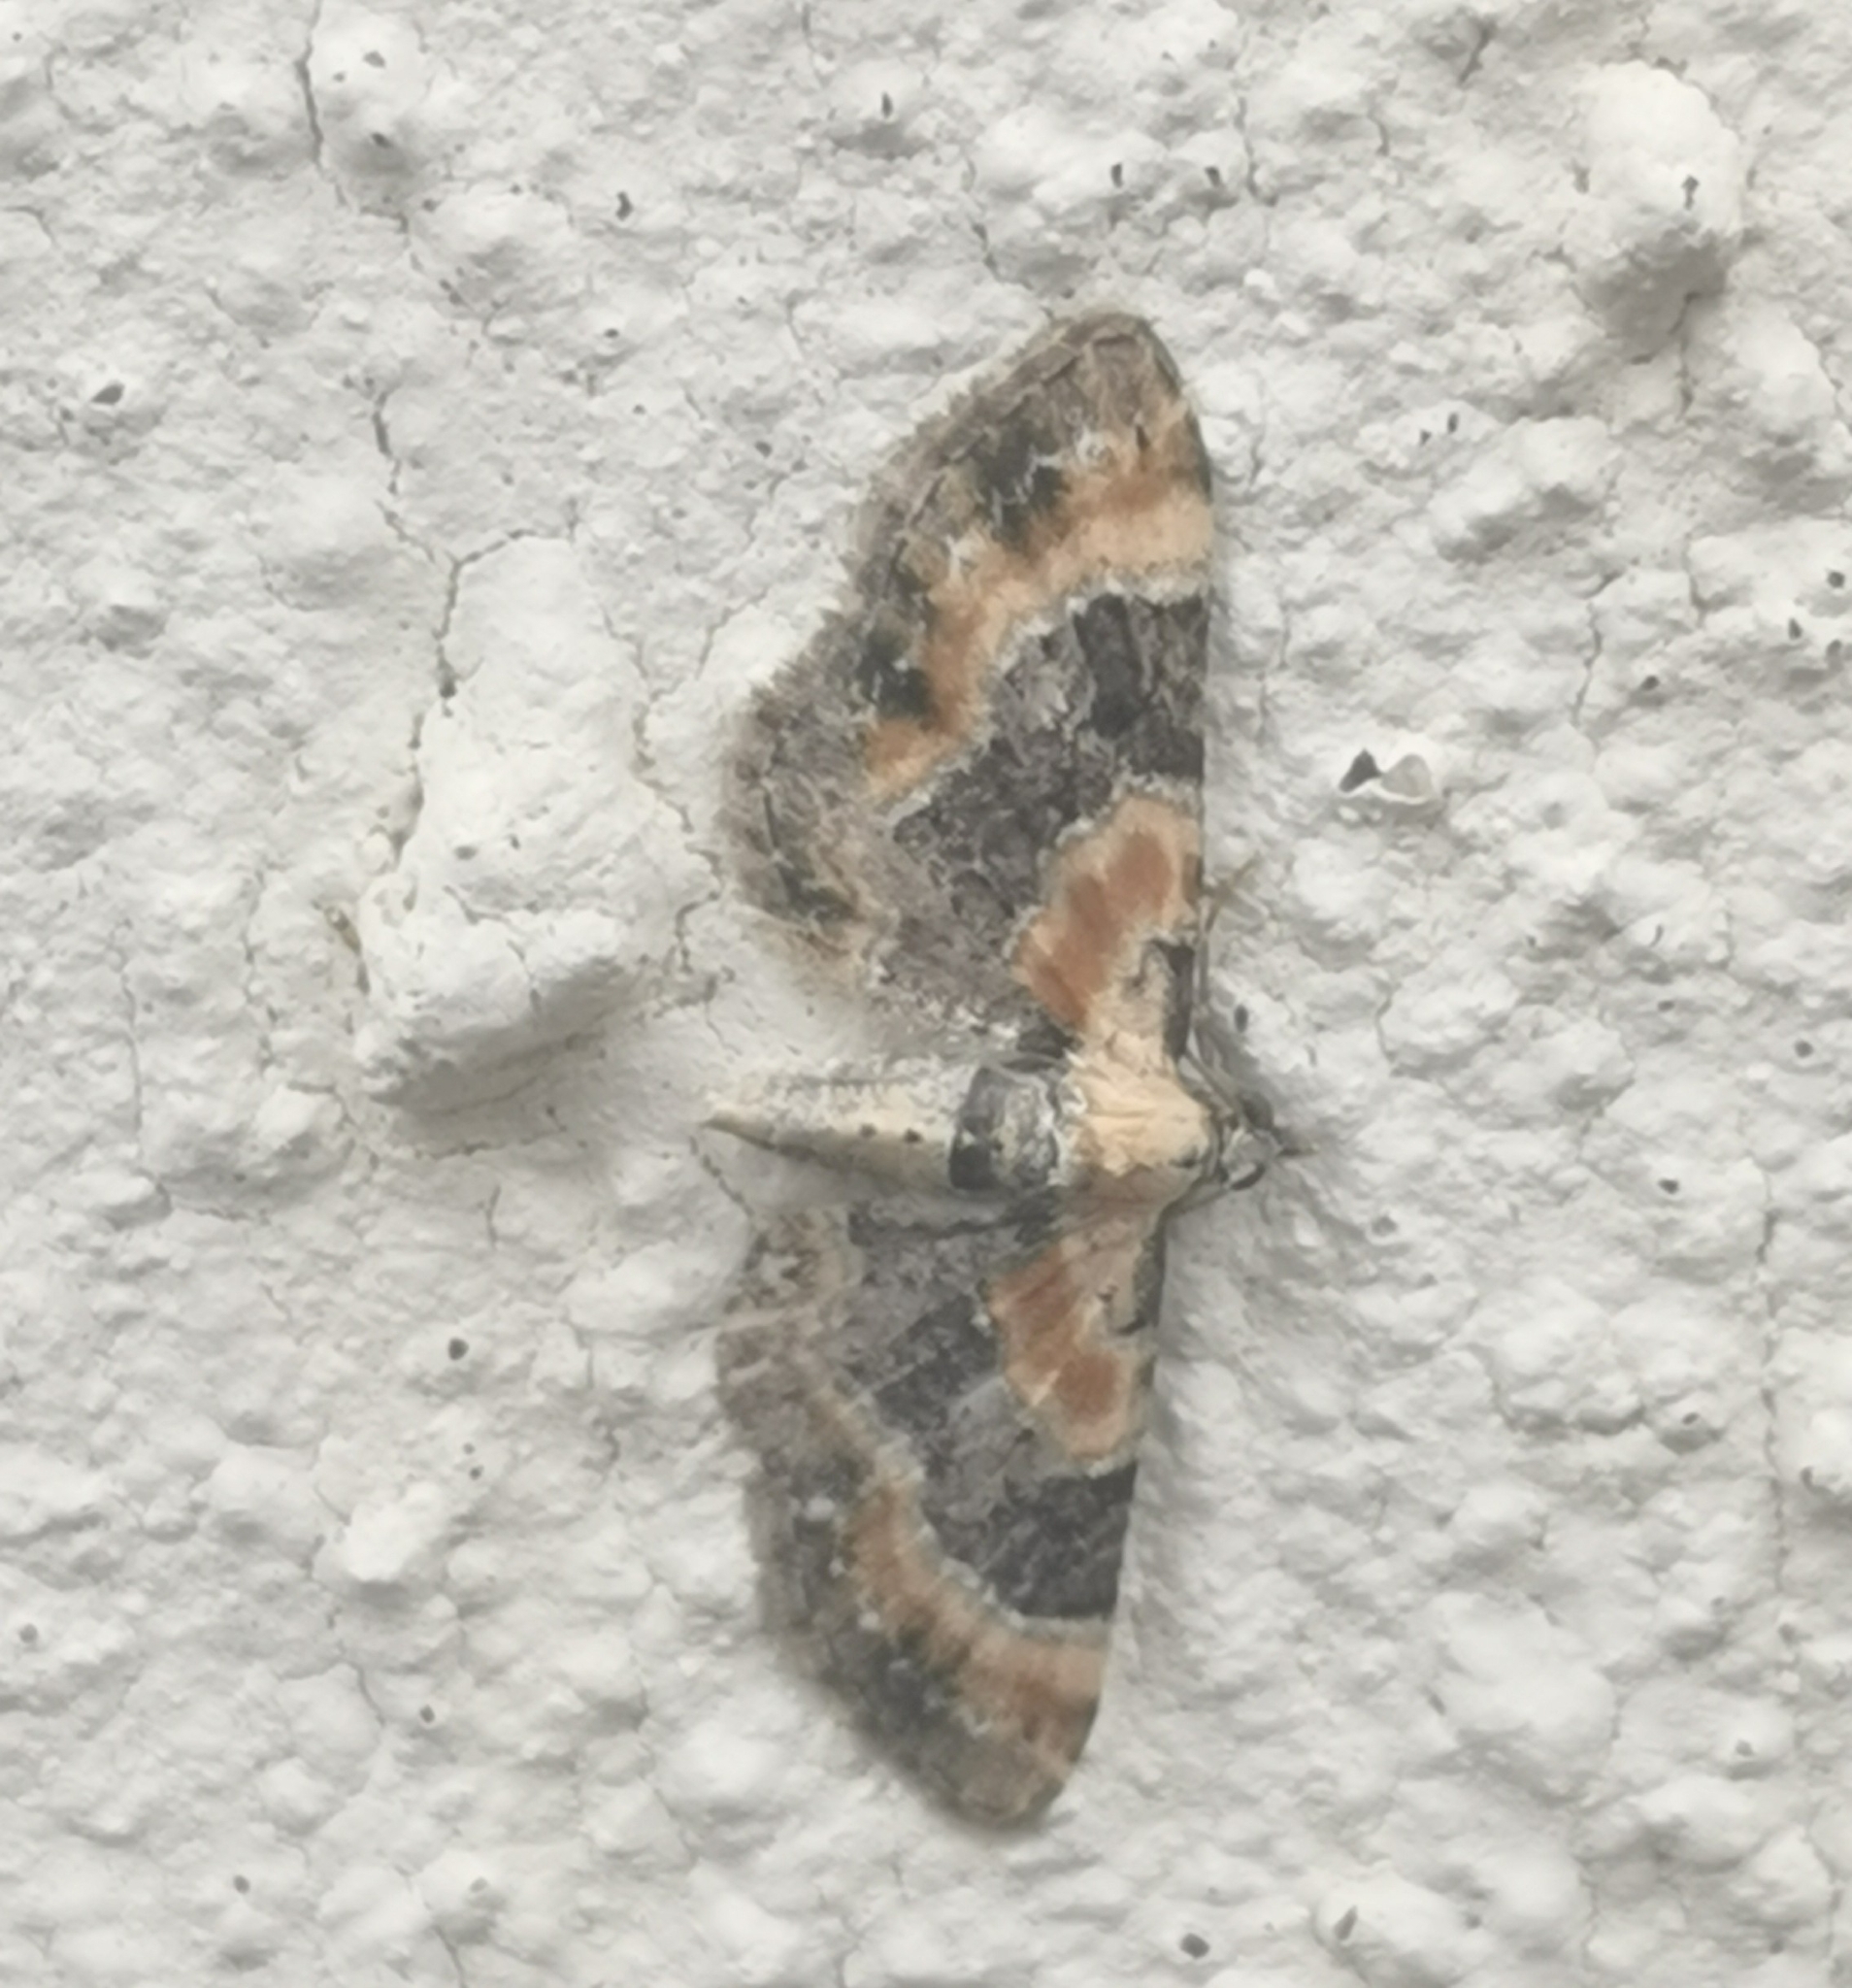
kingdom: Animalia
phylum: Arthropoda
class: Insecta
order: Lepidoptera
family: Geometridae
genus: Eupithecia
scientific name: Eupithecia linariata
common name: Toadflax pug
